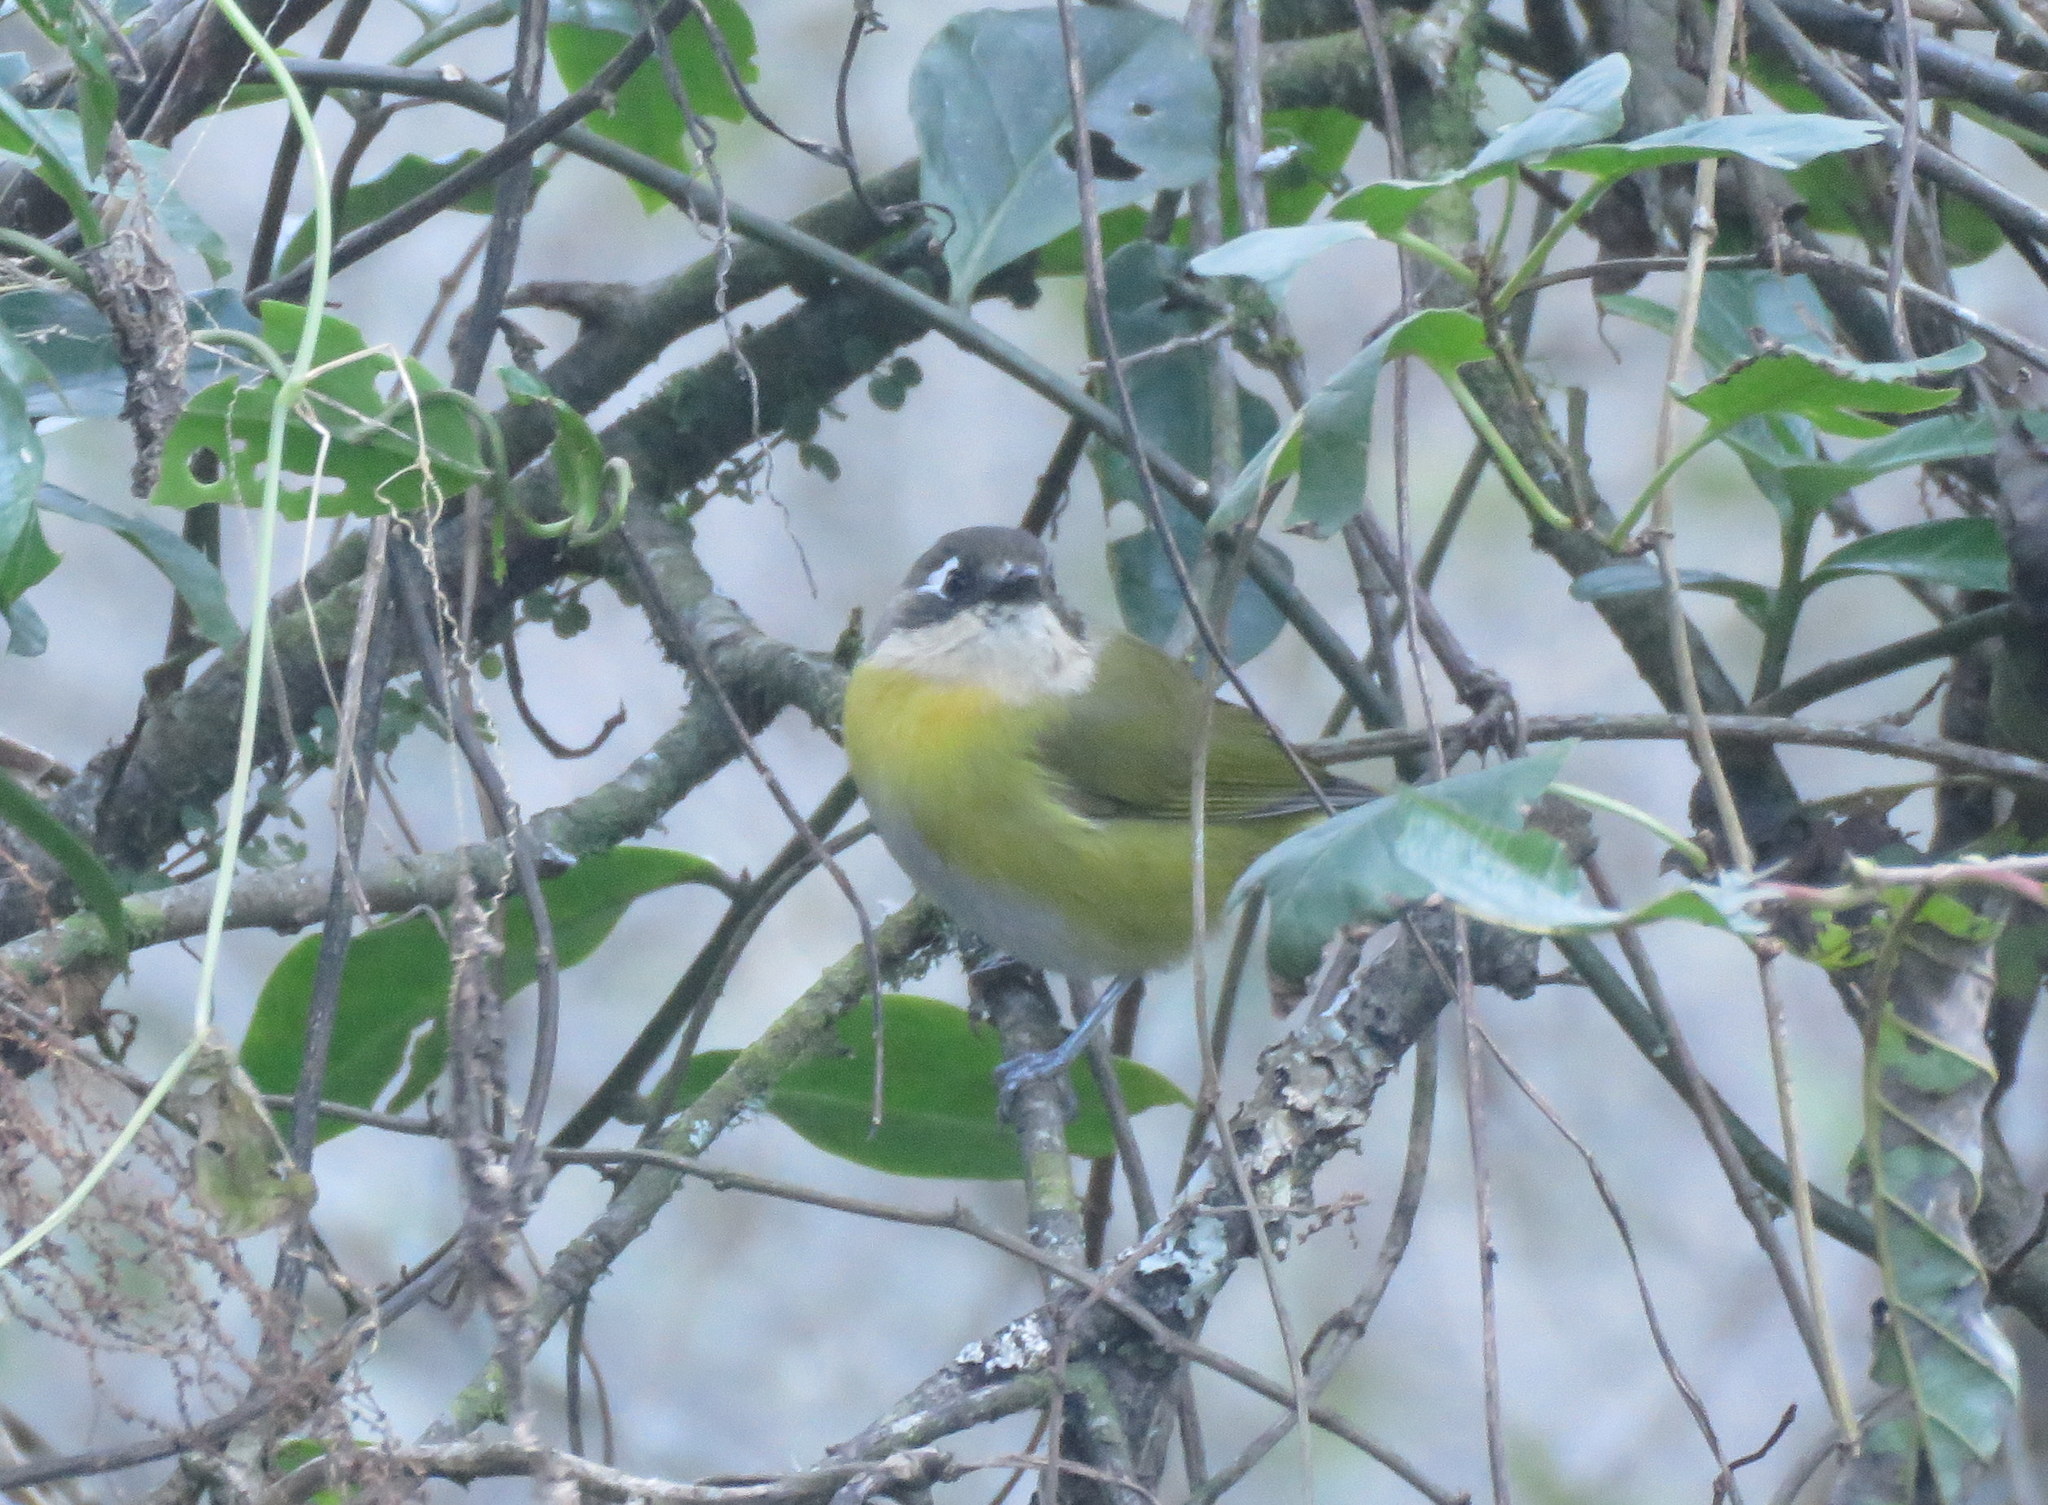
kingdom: Animalia
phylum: Chordata
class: Aves
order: Passeriformes
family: Passerellidae
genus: Chlorospingus
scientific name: Chlorospingus flavopectus
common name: Common chlorospingus
